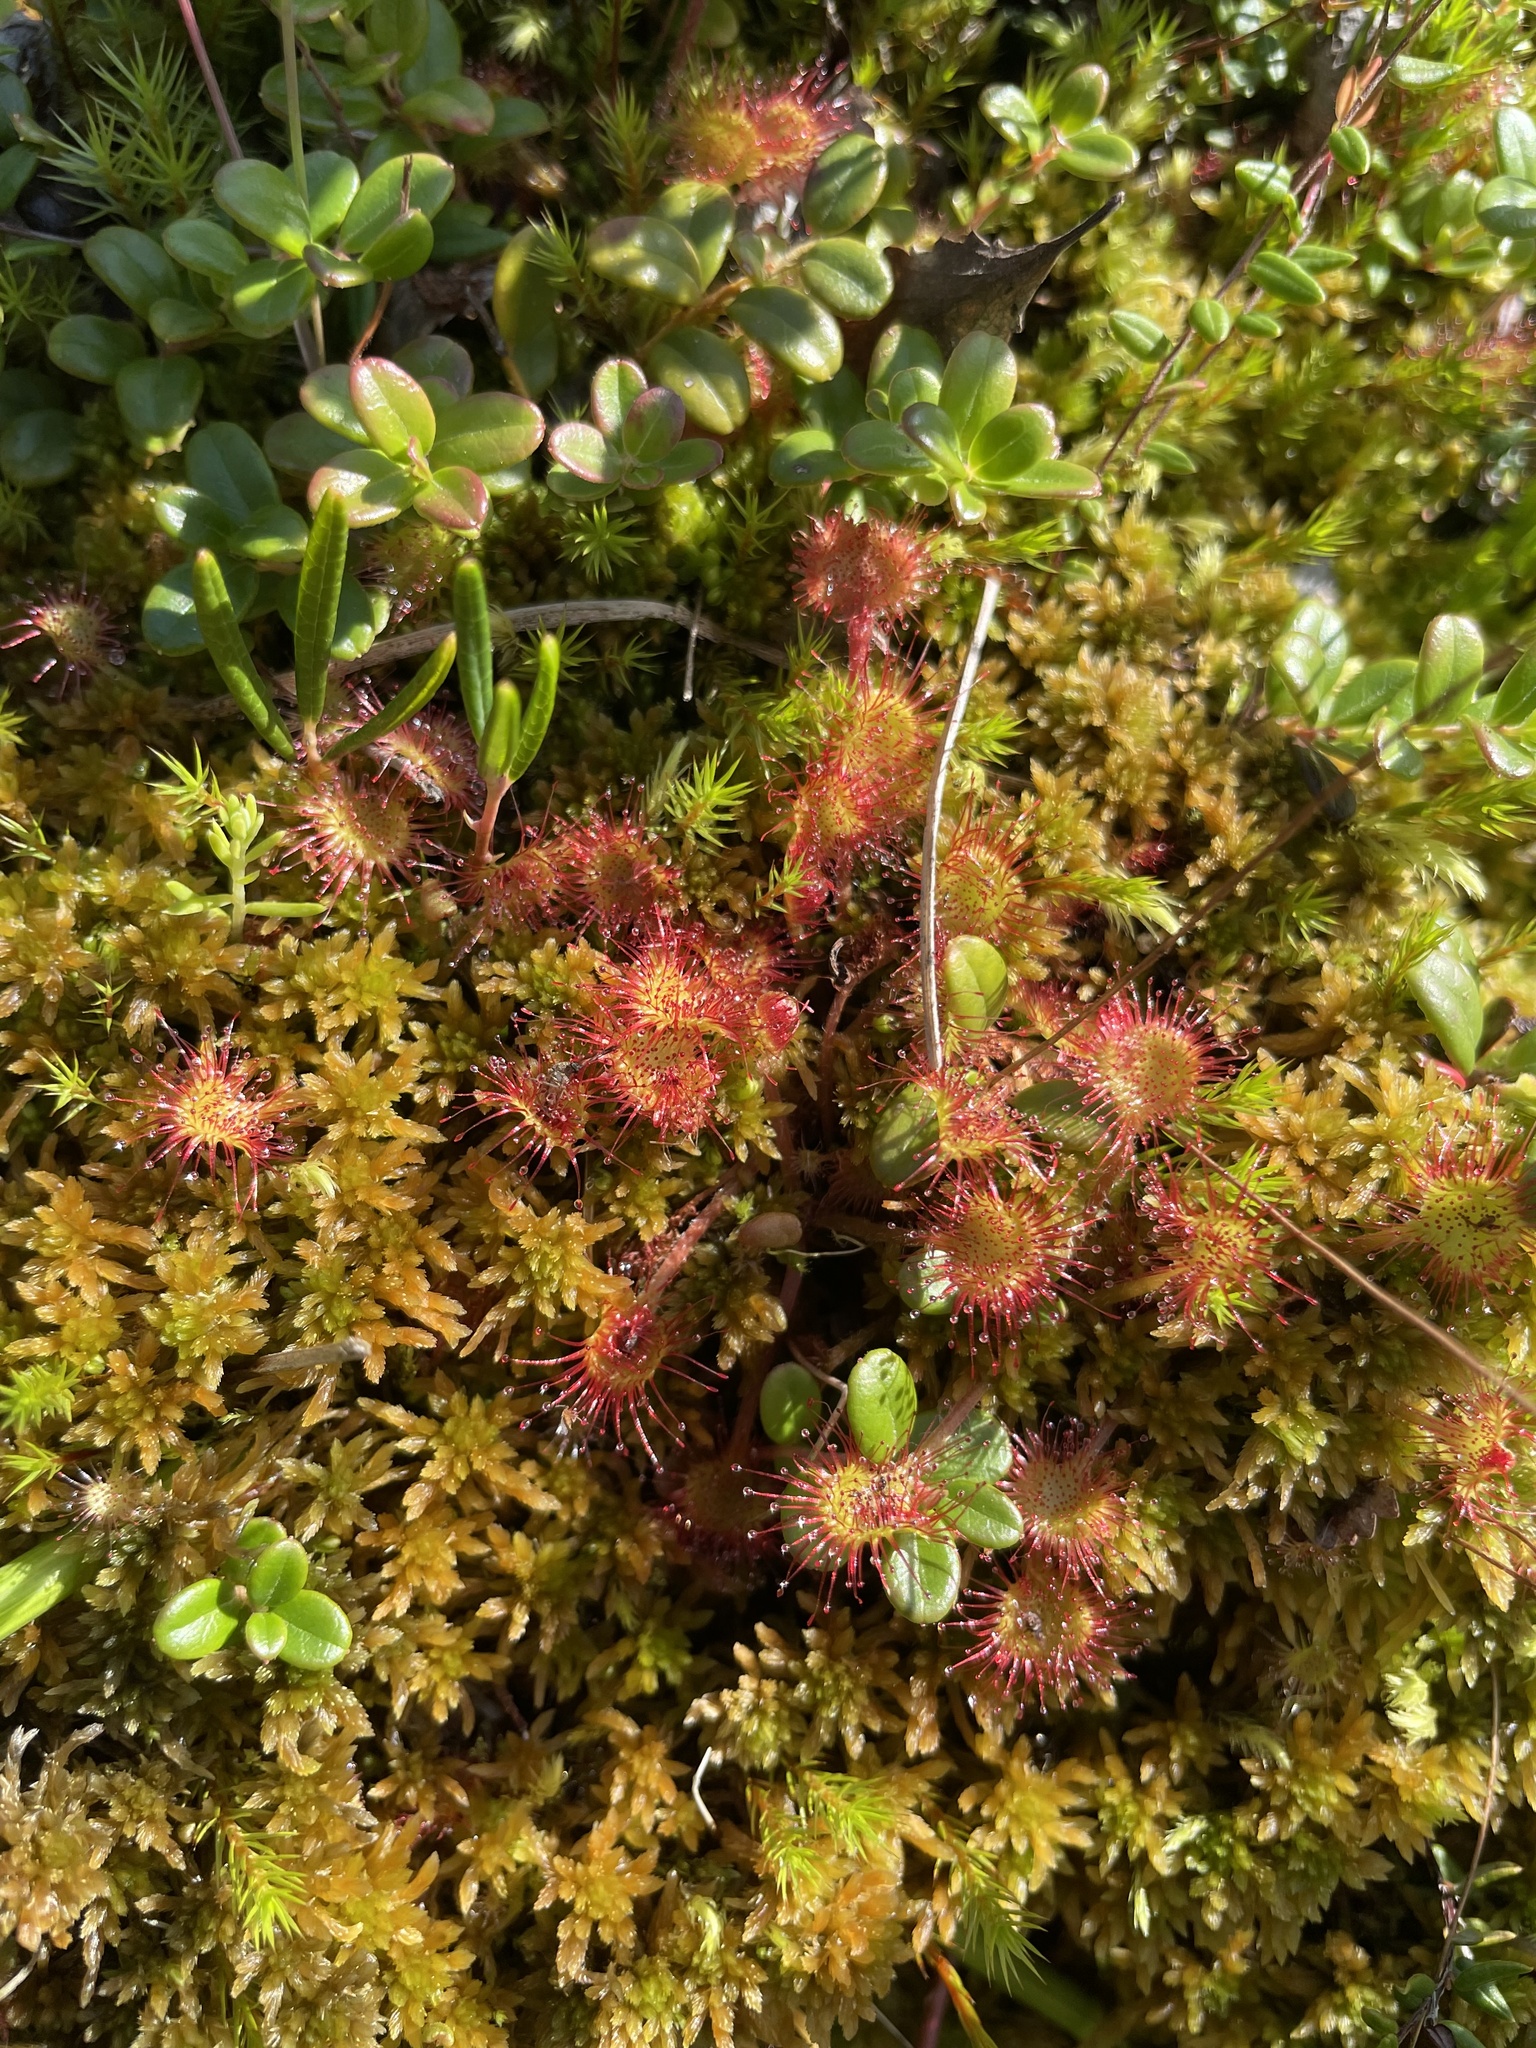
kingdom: Plantae
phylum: Tracheophyta
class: Magnoliopsida
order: Caryophyllales
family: Droseraceae
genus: Drosera
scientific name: Drosera rotundifolia
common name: Round-leaved sundew
